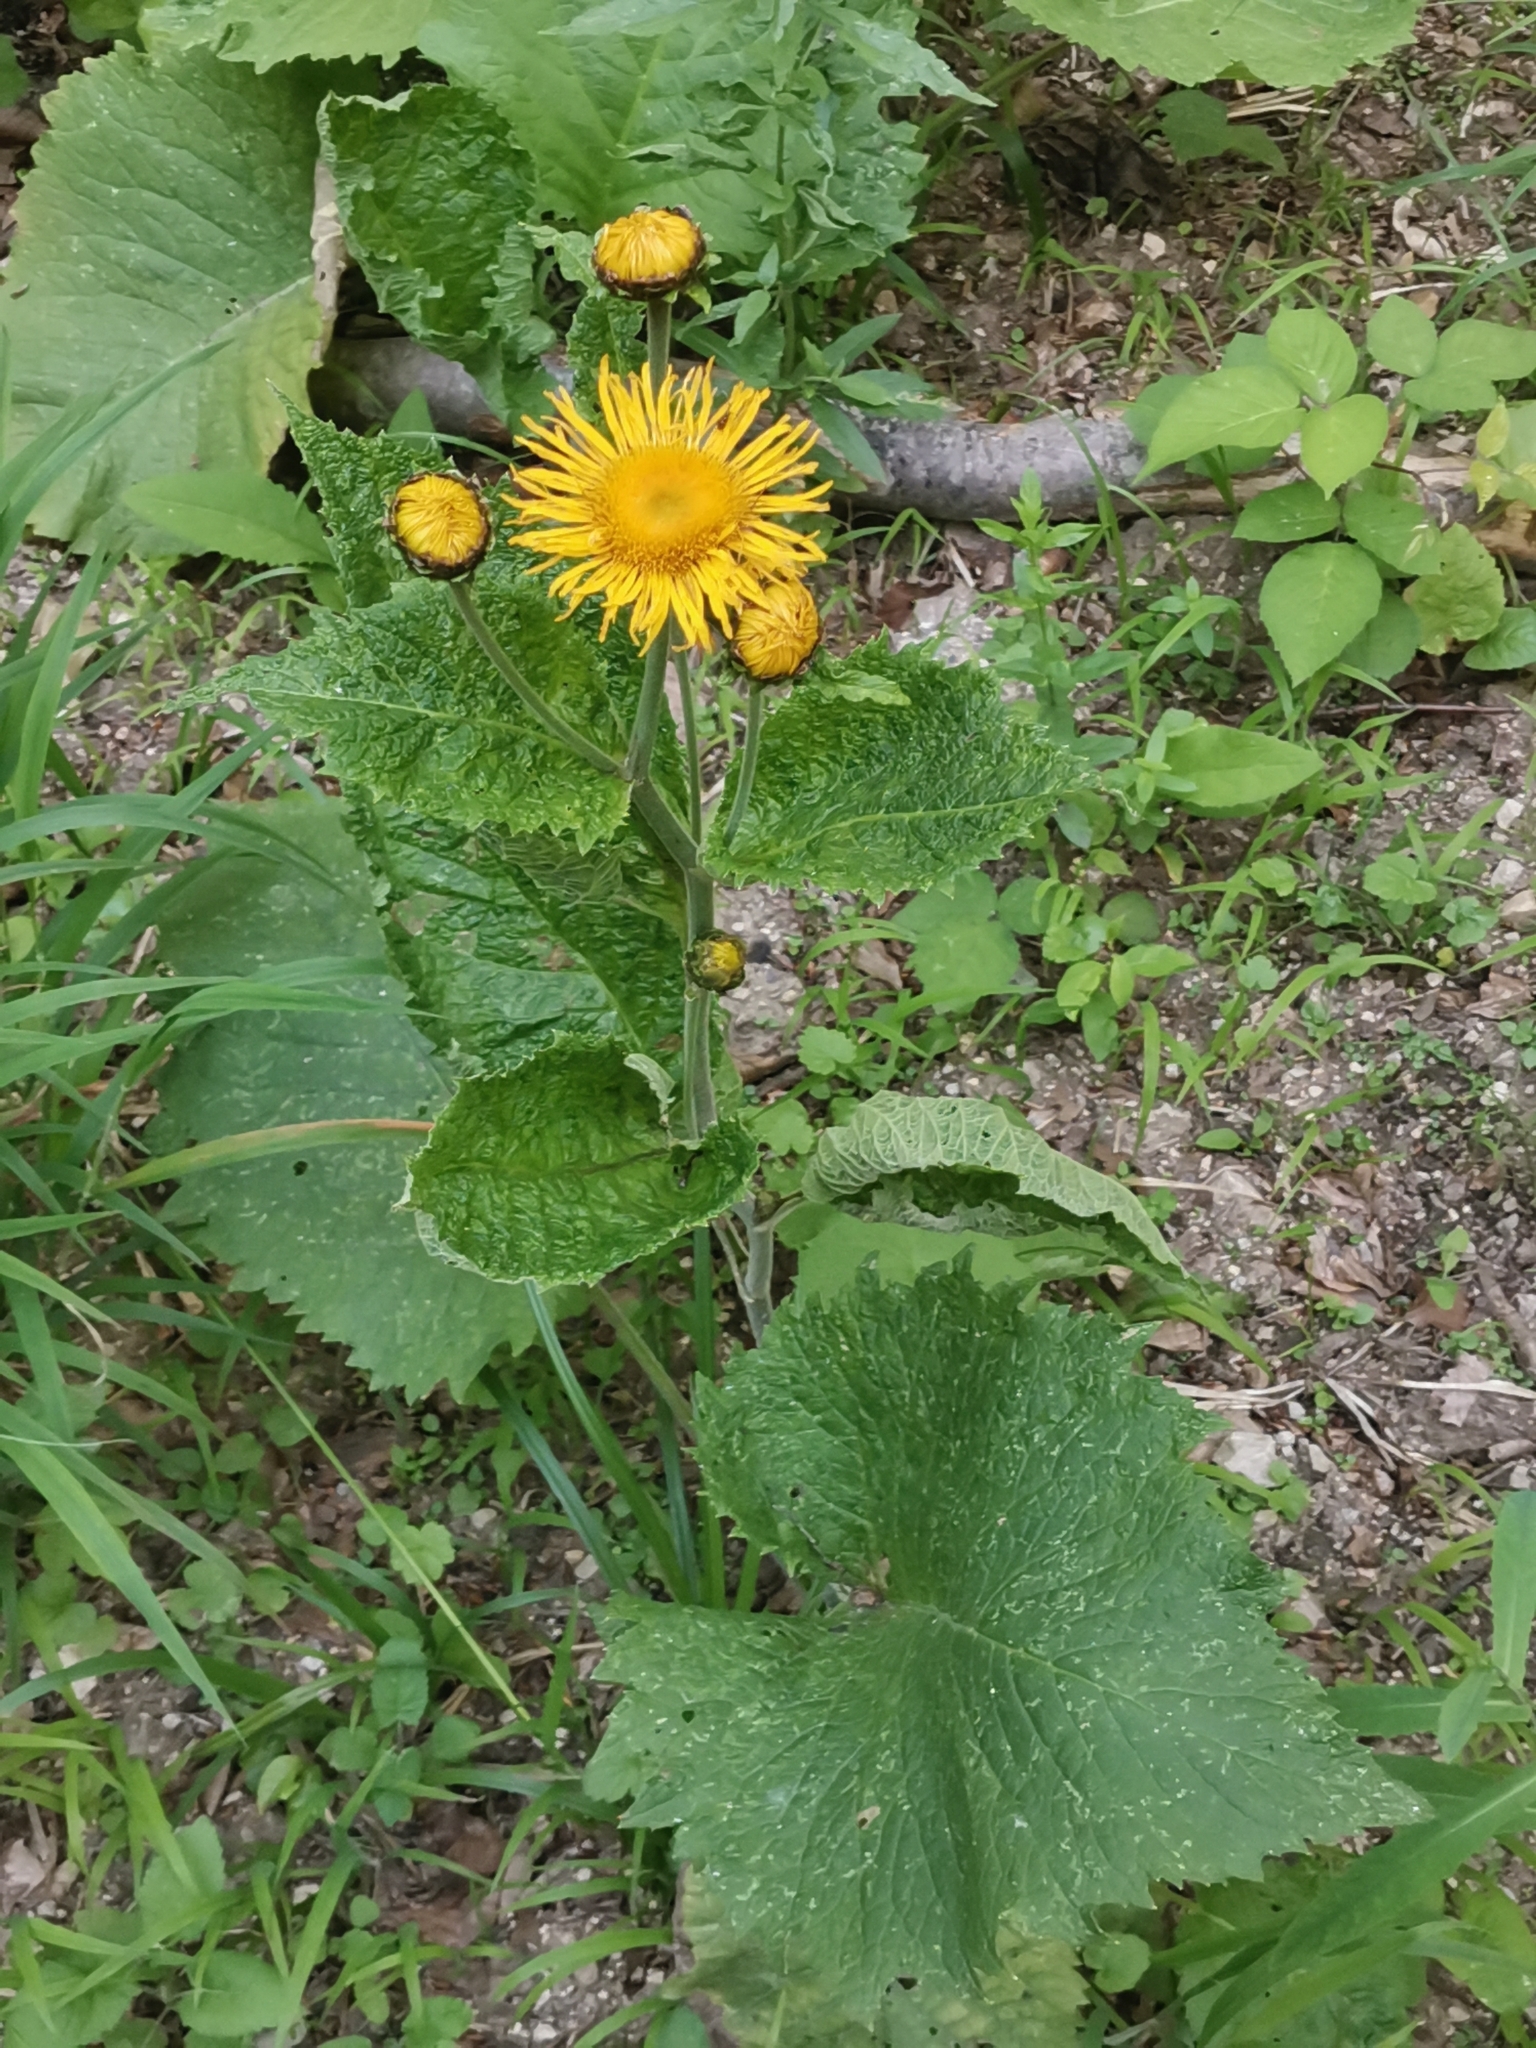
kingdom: Plantae
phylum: Tracheophyta
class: Magnoliopsida
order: Asterales
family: Asteraceae
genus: Telekia
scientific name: Telekia speciosa
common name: Yellow oxeye
